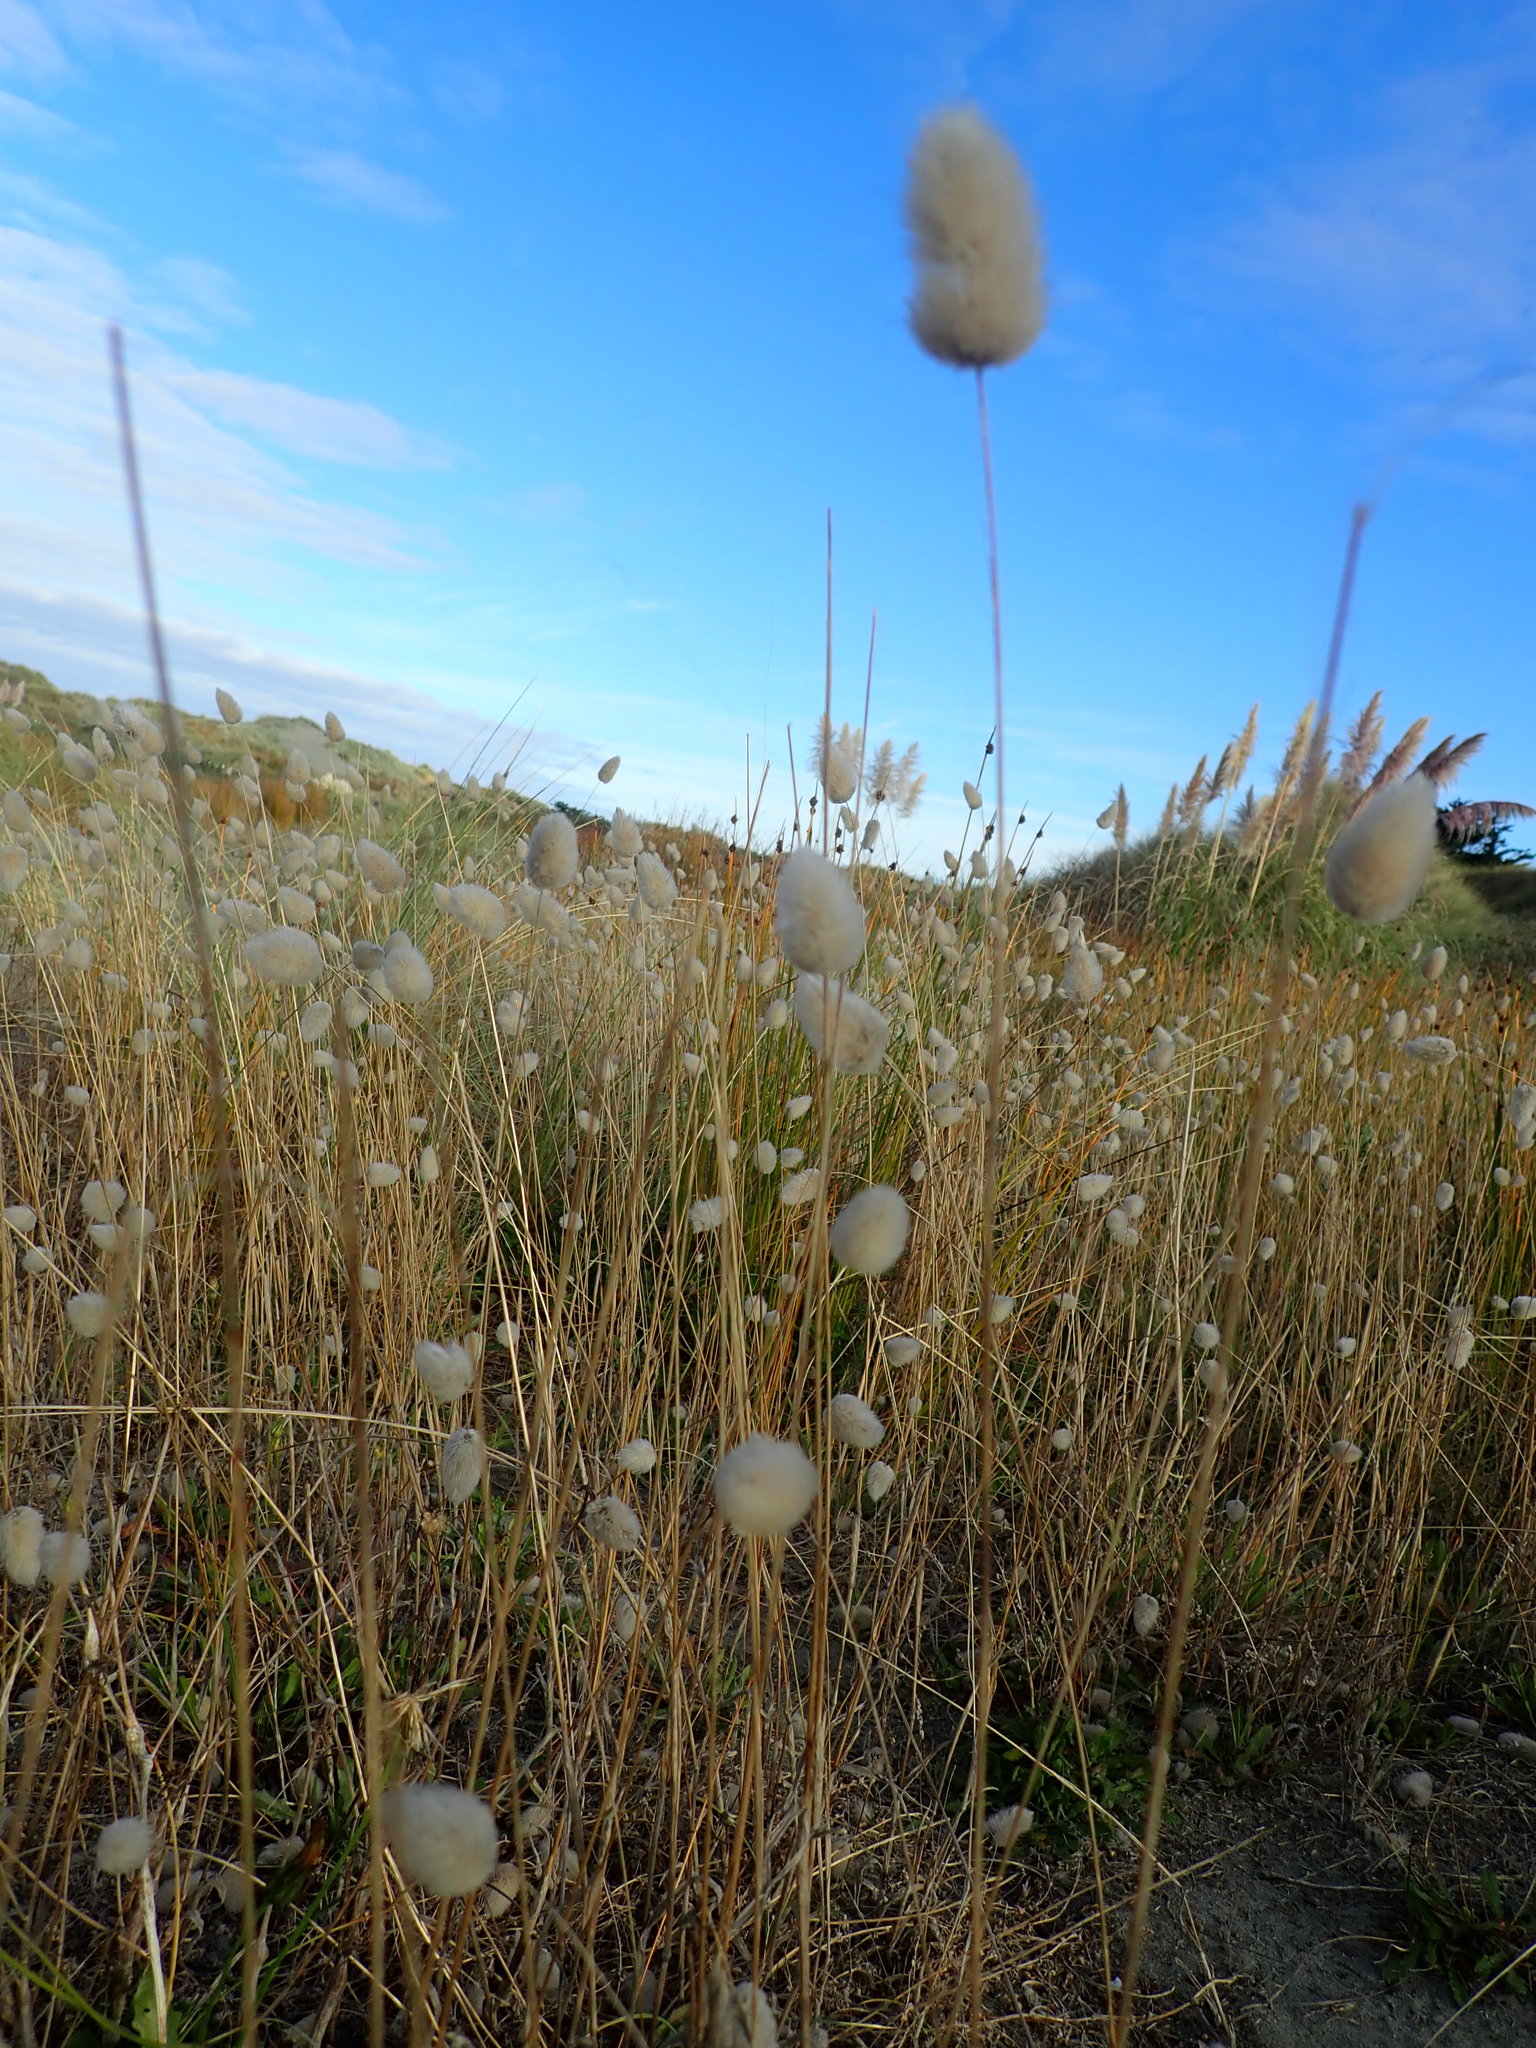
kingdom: Plantae
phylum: Tracheophyta
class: Liliopsida
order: Poales
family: Poaceae
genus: Lagurus
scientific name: Lagurus ovatus
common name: Hare's-tail
